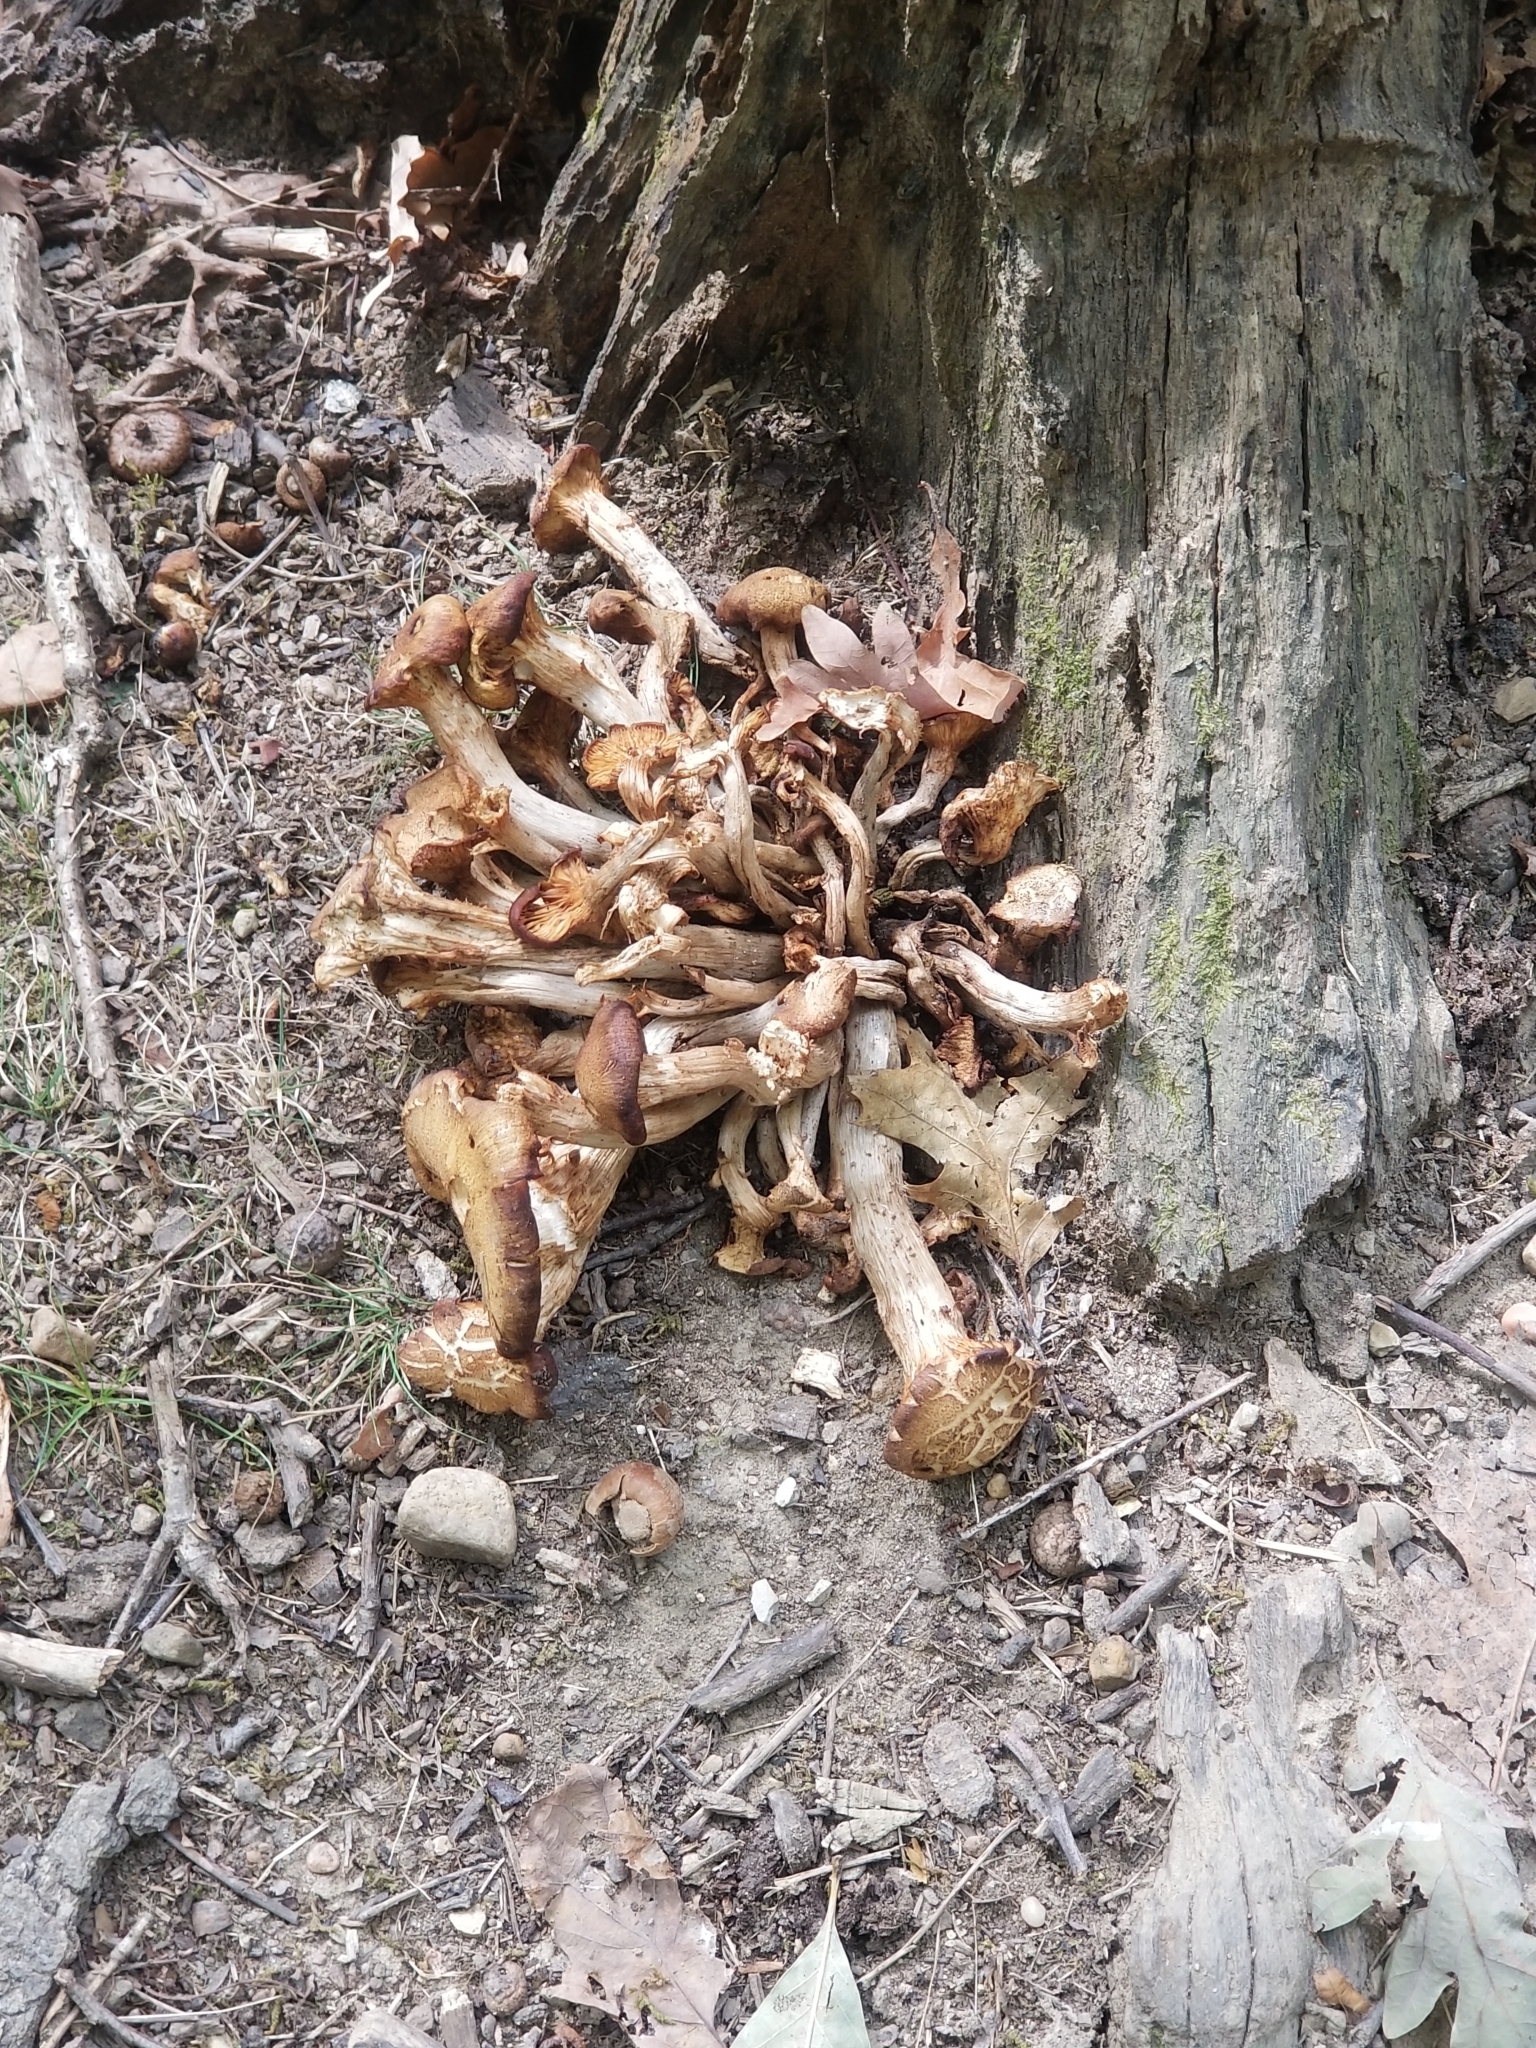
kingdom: Fungi
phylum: Basidiomycota
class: Agaricomycetes
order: Agaricales
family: Physalacriaceae
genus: Desarmillaria
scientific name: Desarmillaria caespitosa
